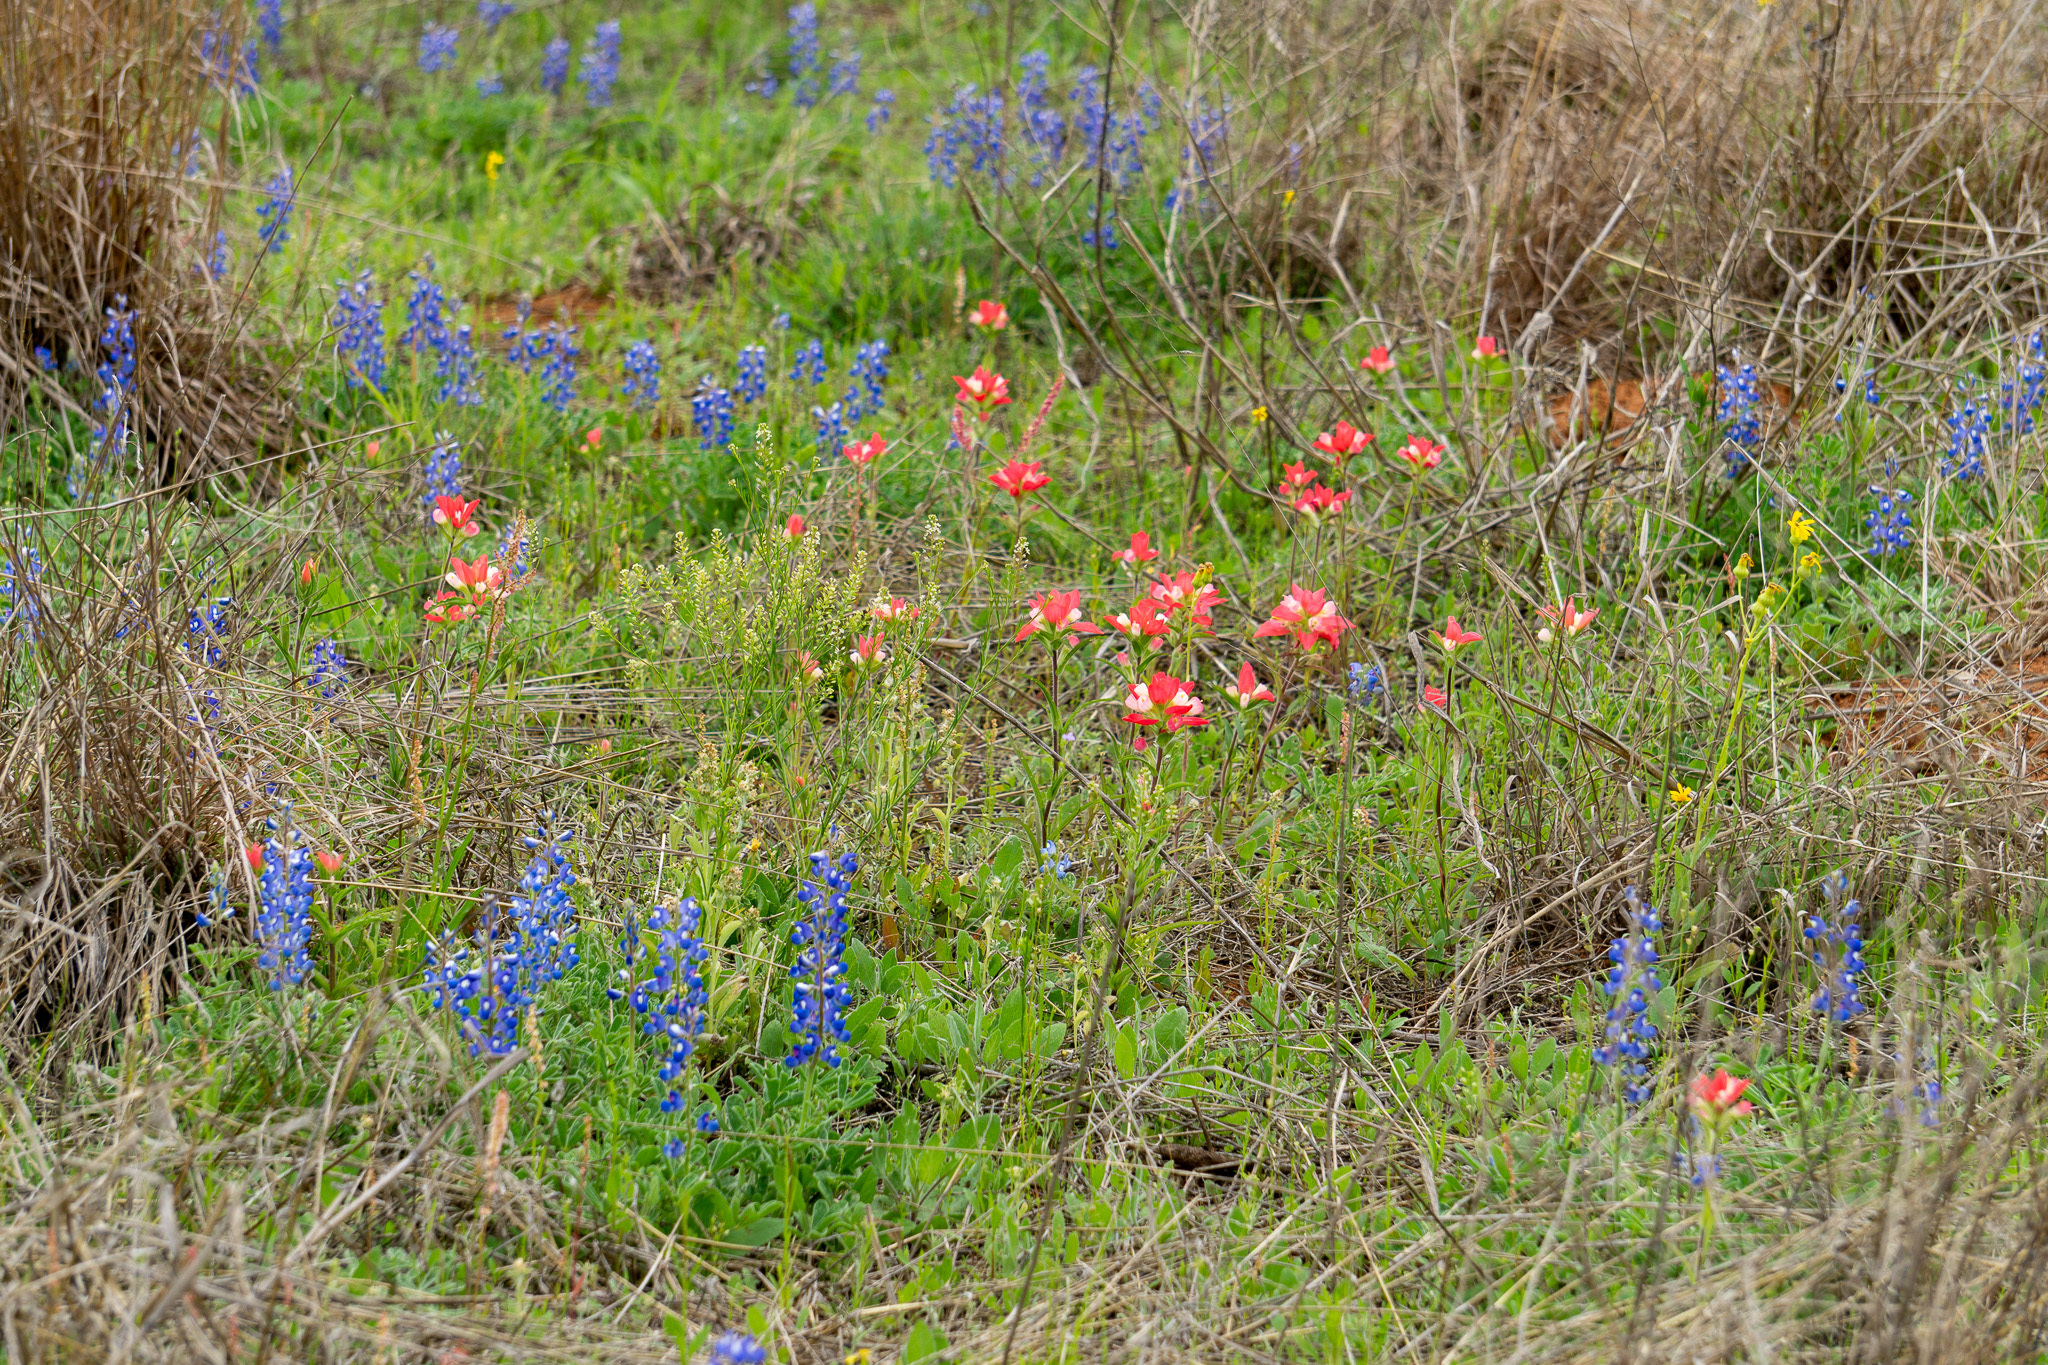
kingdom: Plantae
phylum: Tracheophyta
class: Magnoliopsida
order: Lamiales
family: Orobanchaceae
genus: Castilleja
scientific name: Castilleja indivisa
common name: Texas paintbrush
